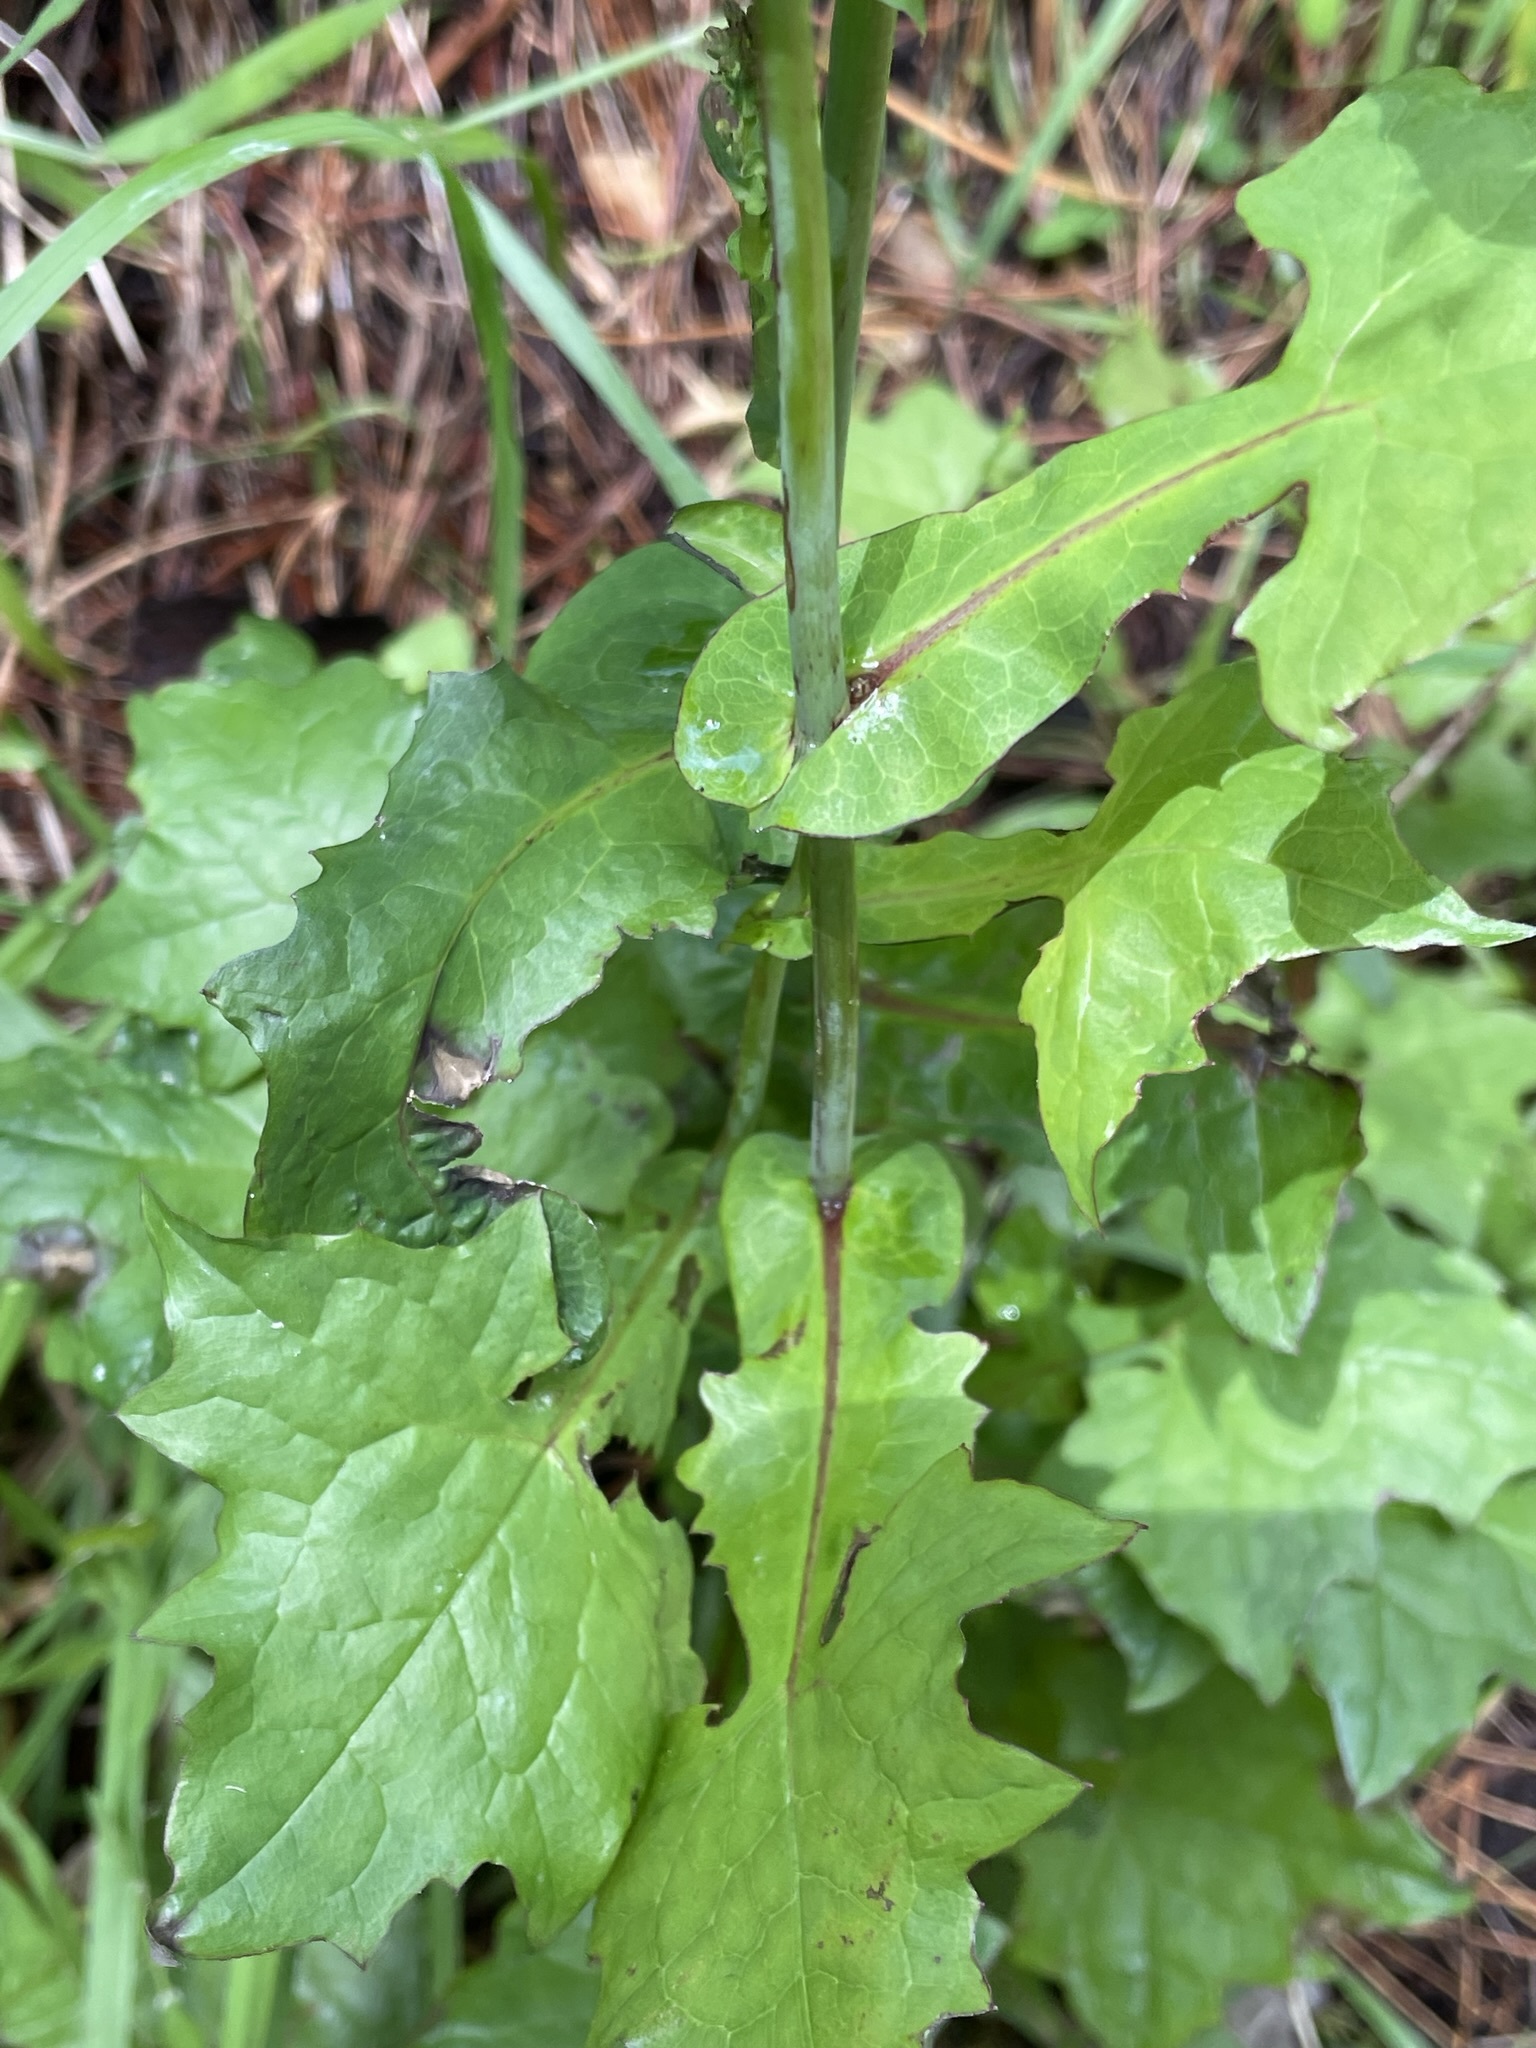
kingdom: Plantae
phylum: Tracheophyta
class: Magnoliopsida
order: Asterales
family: Asteraceae
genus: Mycelis
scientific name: Mycelis muralis
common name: Wall lettuce
